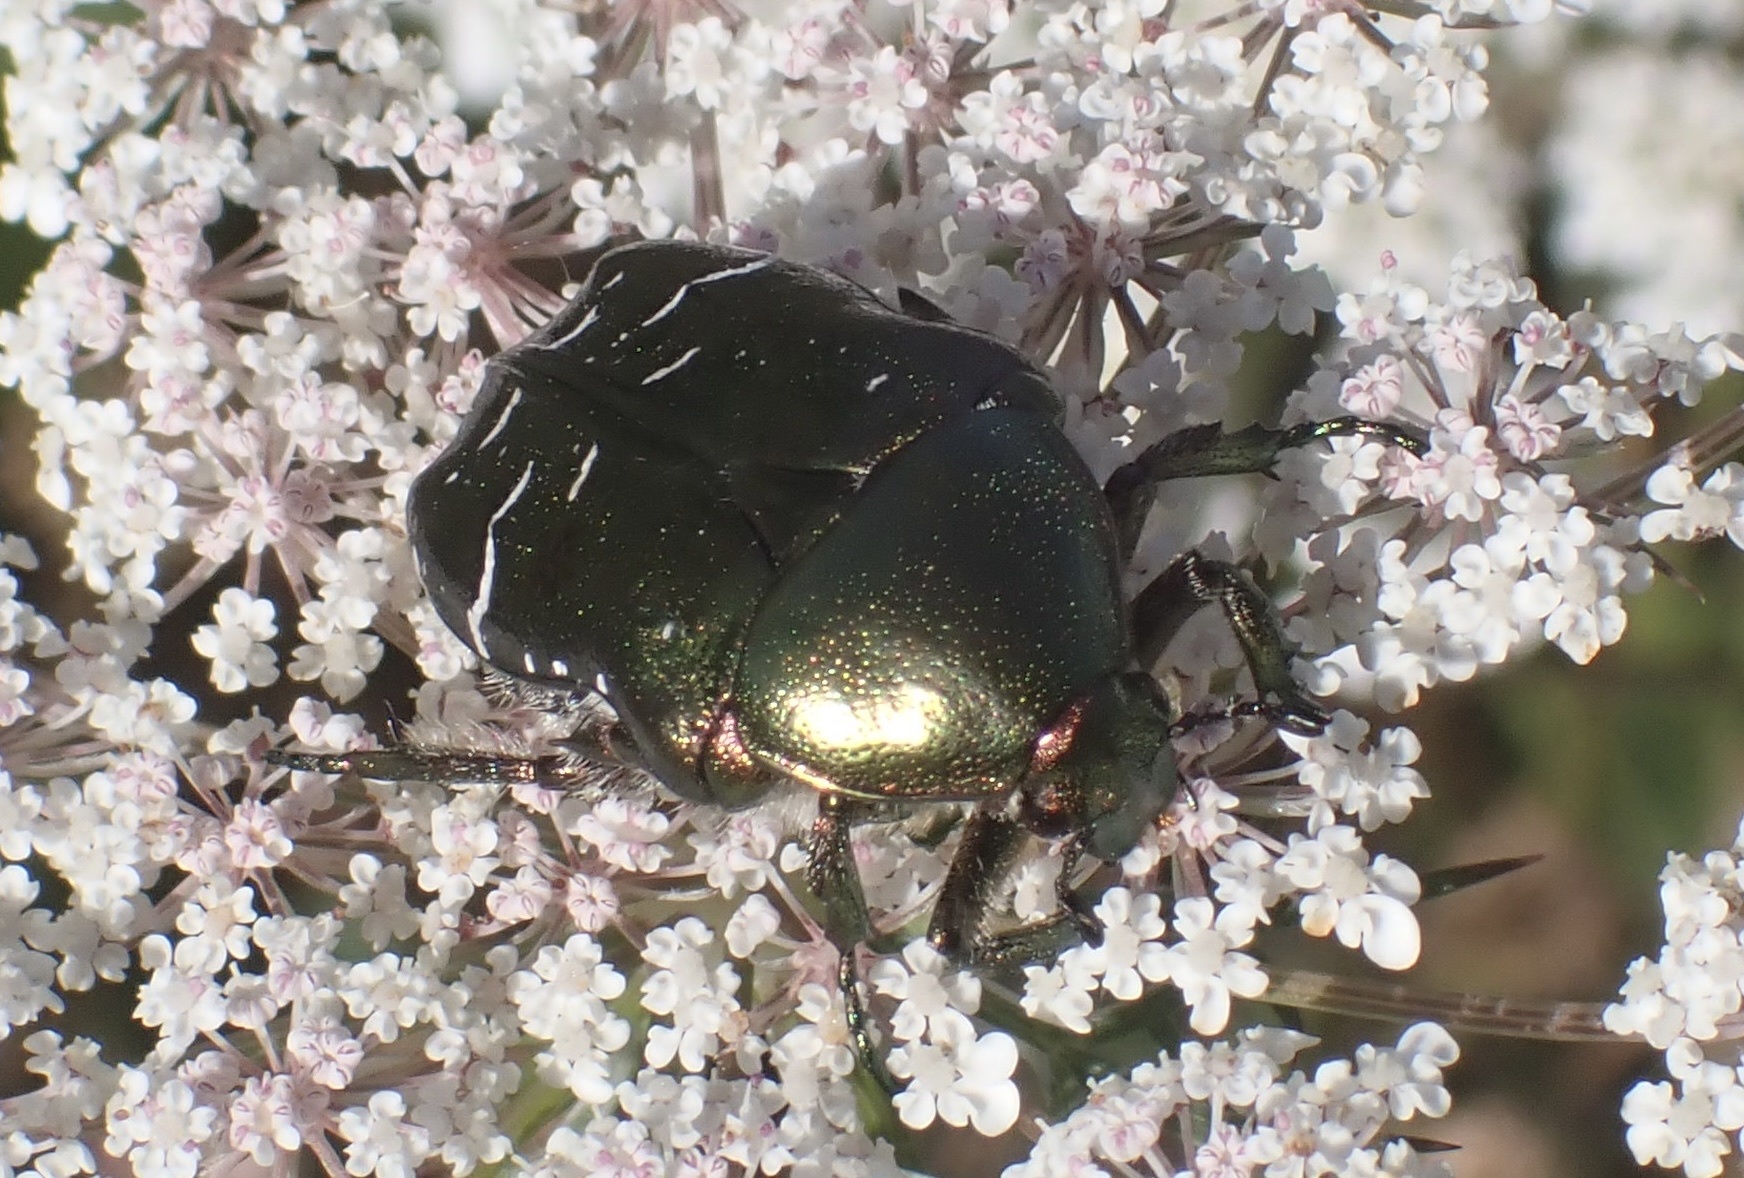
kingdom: Animalia
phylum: Arthropoda
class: Insecta
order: Coleoptera
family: Scarabaeidae
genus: Protaetia
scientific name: Protaetia cuprea
